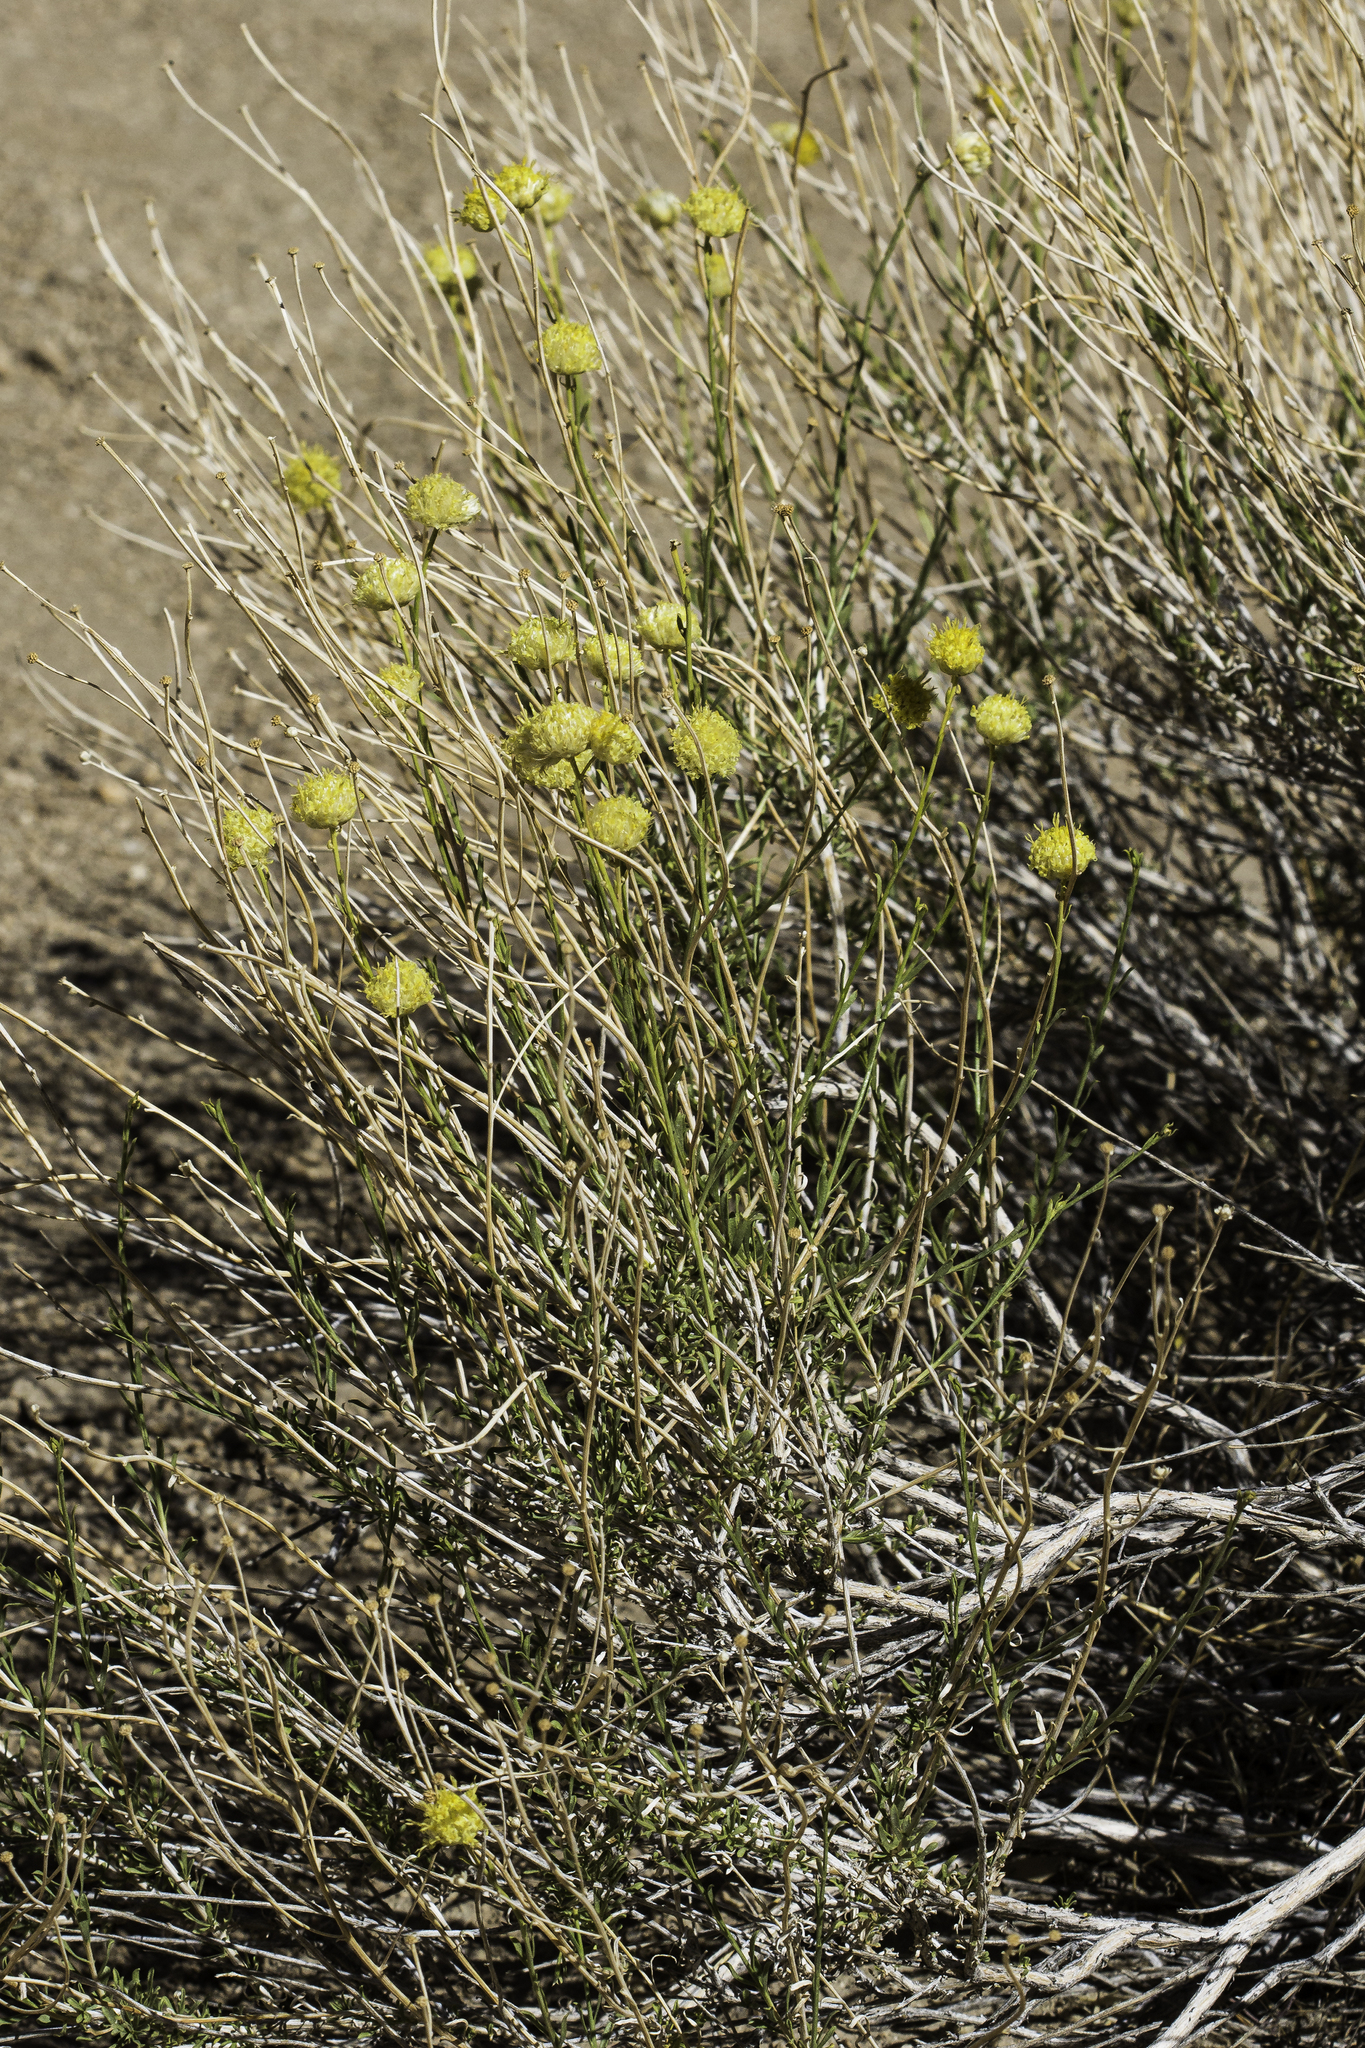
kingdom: Plantae
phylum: Tracheophyta
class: Magnoliopsida
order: Asterales
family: Asteraceae
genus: Acamptopappus
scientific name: Acamptopappus sphaerocephalus
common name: Goldenhead
